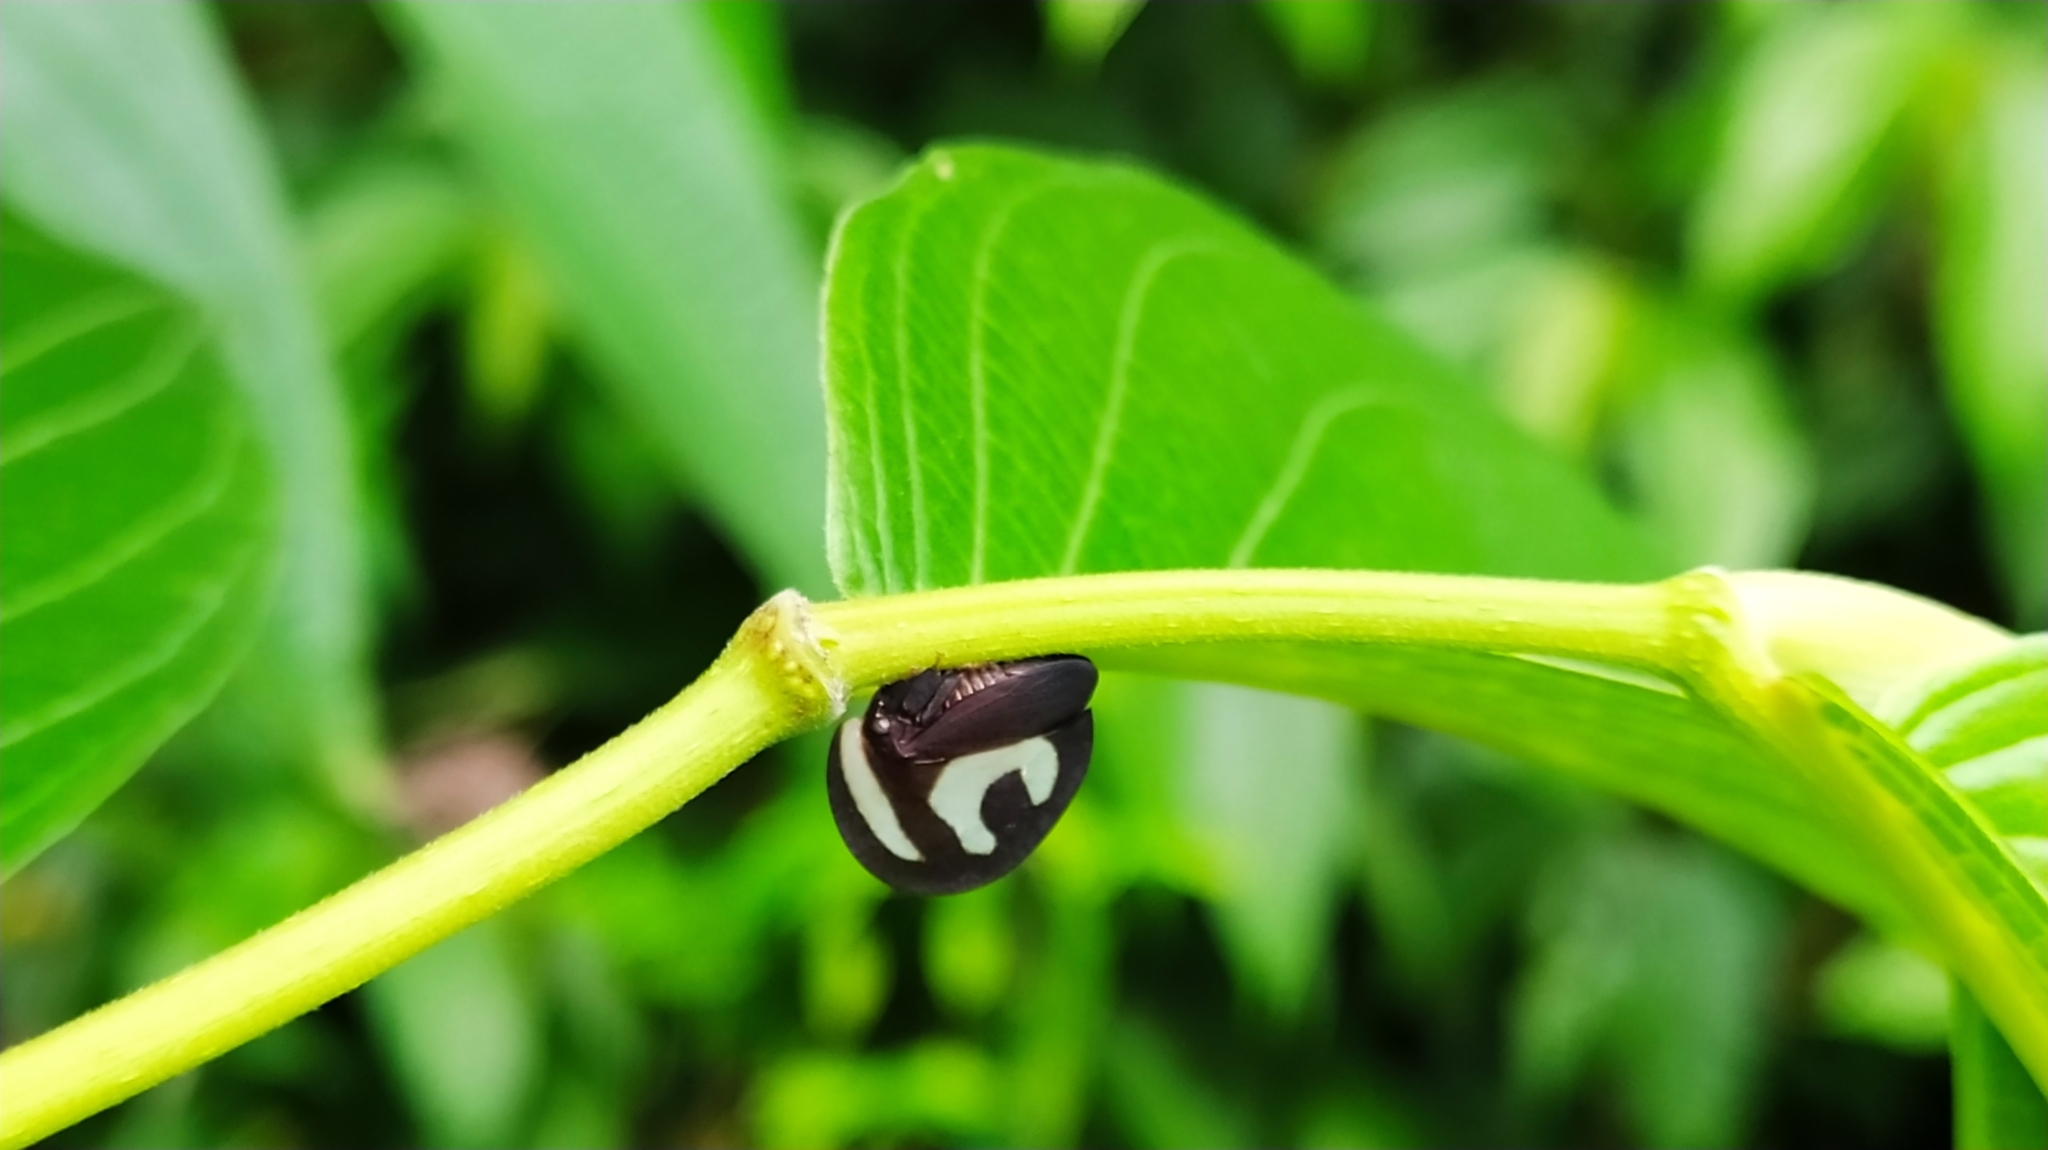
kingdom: Animalia
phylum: Arthropoda
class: Insecta
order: Hemiptera
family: Membracidae
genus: Membracis
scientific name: Membracis foliatafasciata
